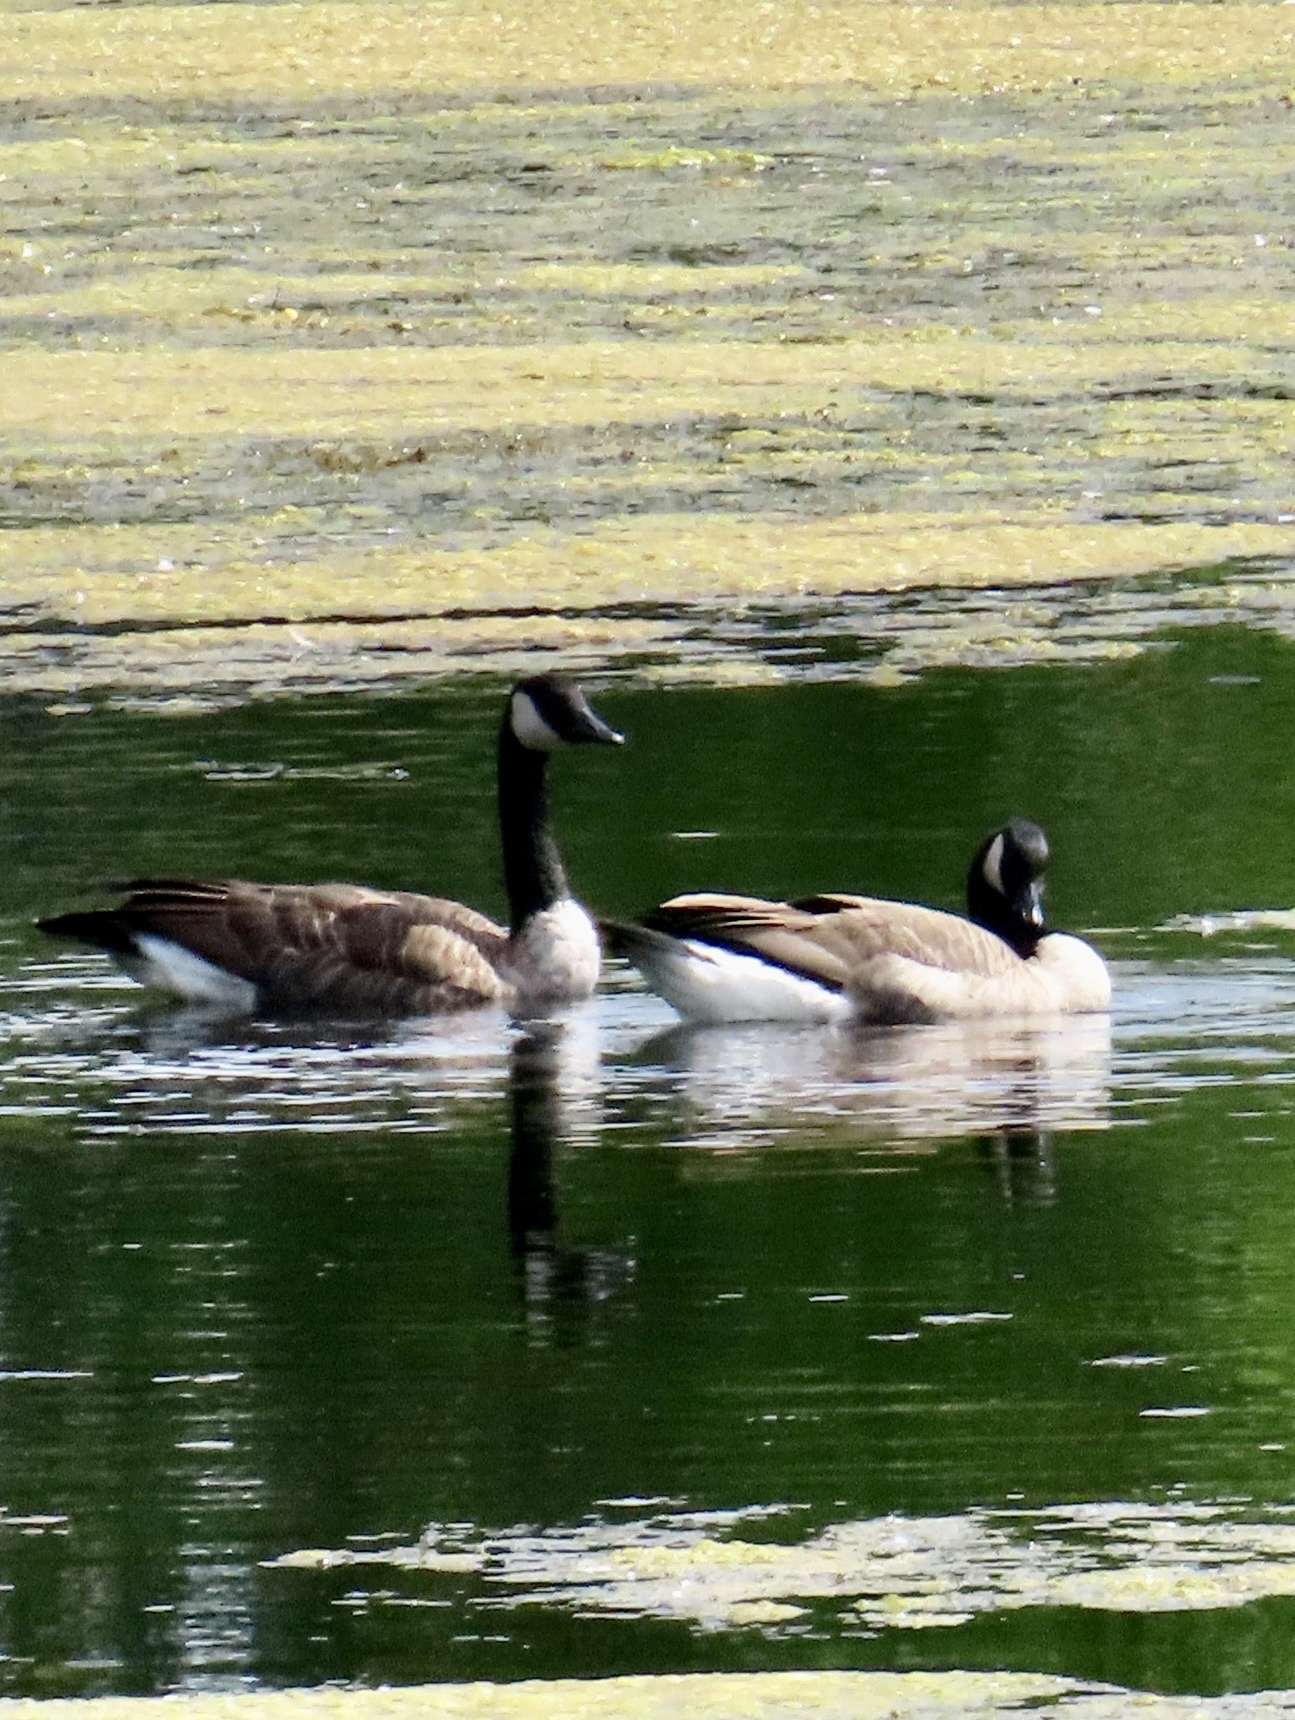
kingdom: Animalia
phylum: Chordata
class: Aves
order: Anseriformes
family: Anatidae
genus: Branta
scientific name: Branta canadensis
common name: Canada goose
